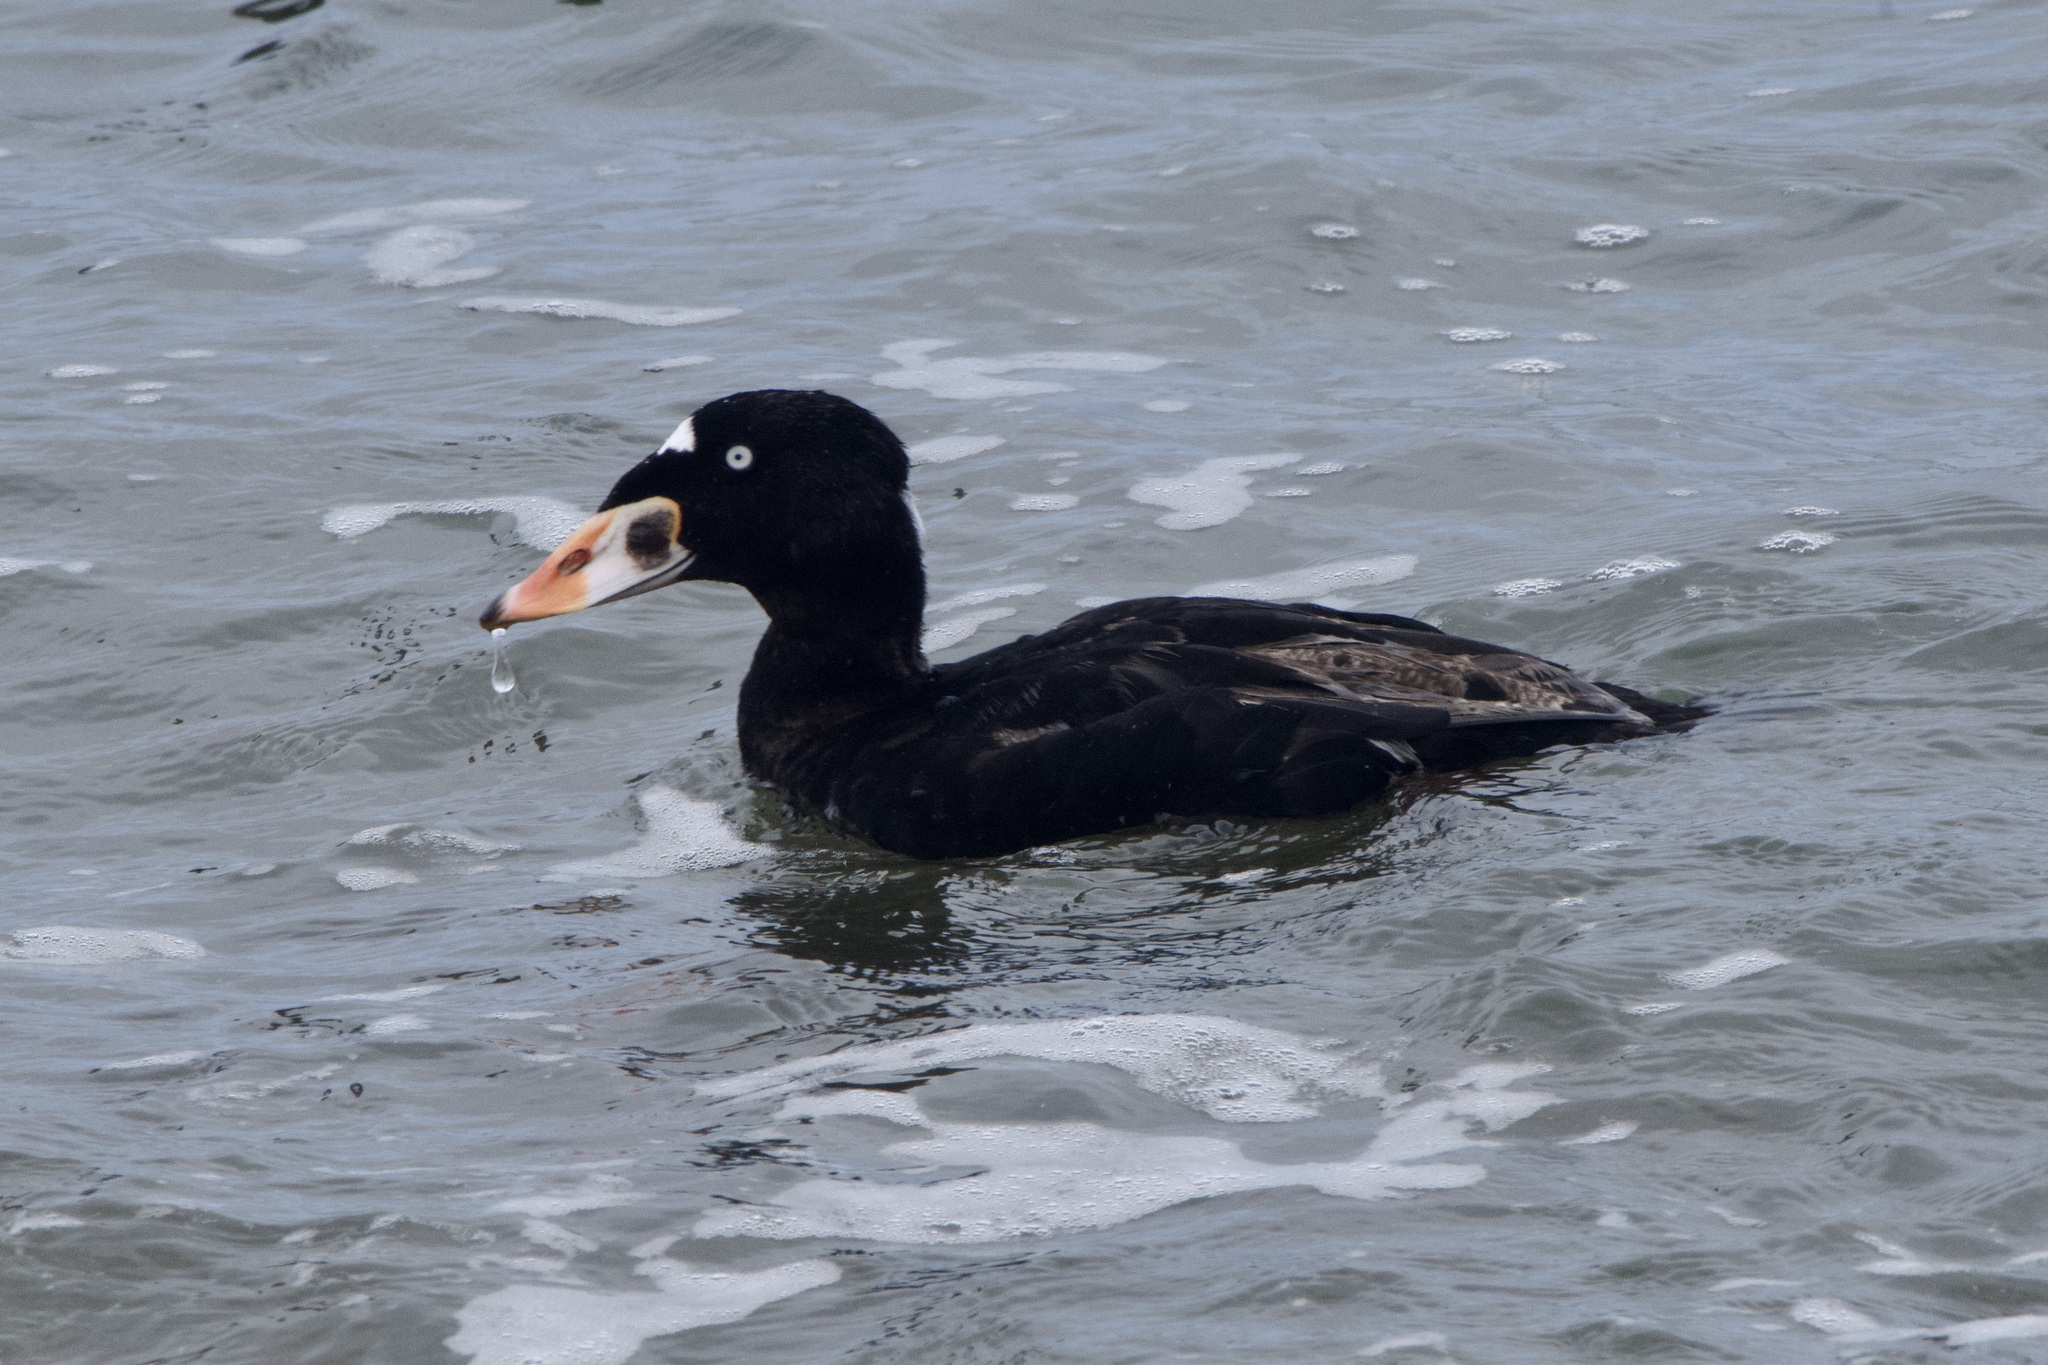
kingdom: Animalia
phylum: Chordata
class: Aves
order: Anseriformes
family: Anatidae
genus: Melanitta
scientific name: Melanitta perspicillata
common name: Surf scoter
